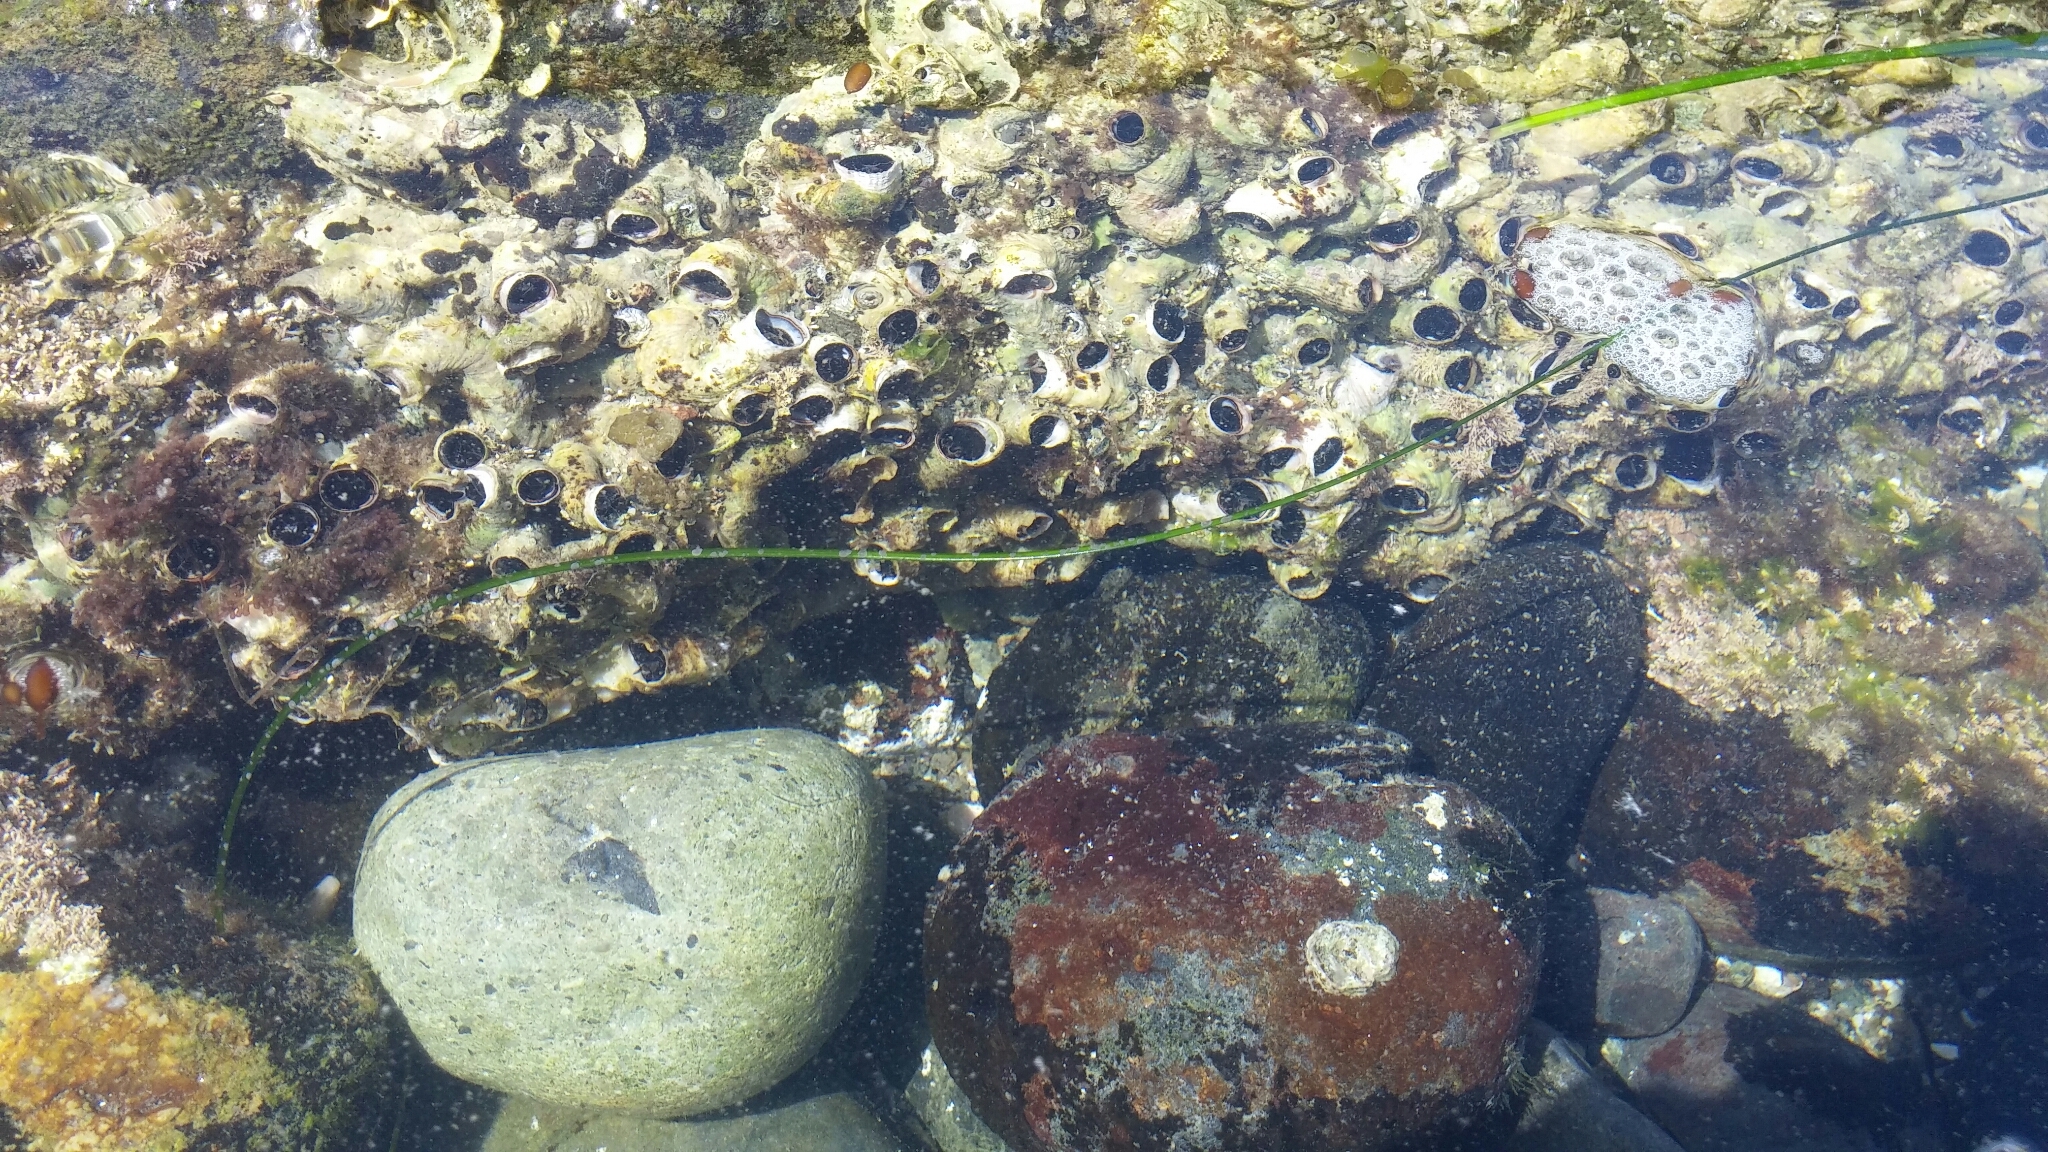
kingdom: Animalia
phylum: Mollusca
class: Gastropoda
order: Littorinimorpha
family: Vermetidae
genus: Thylacodes
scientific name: Thylacodes squamigerus
